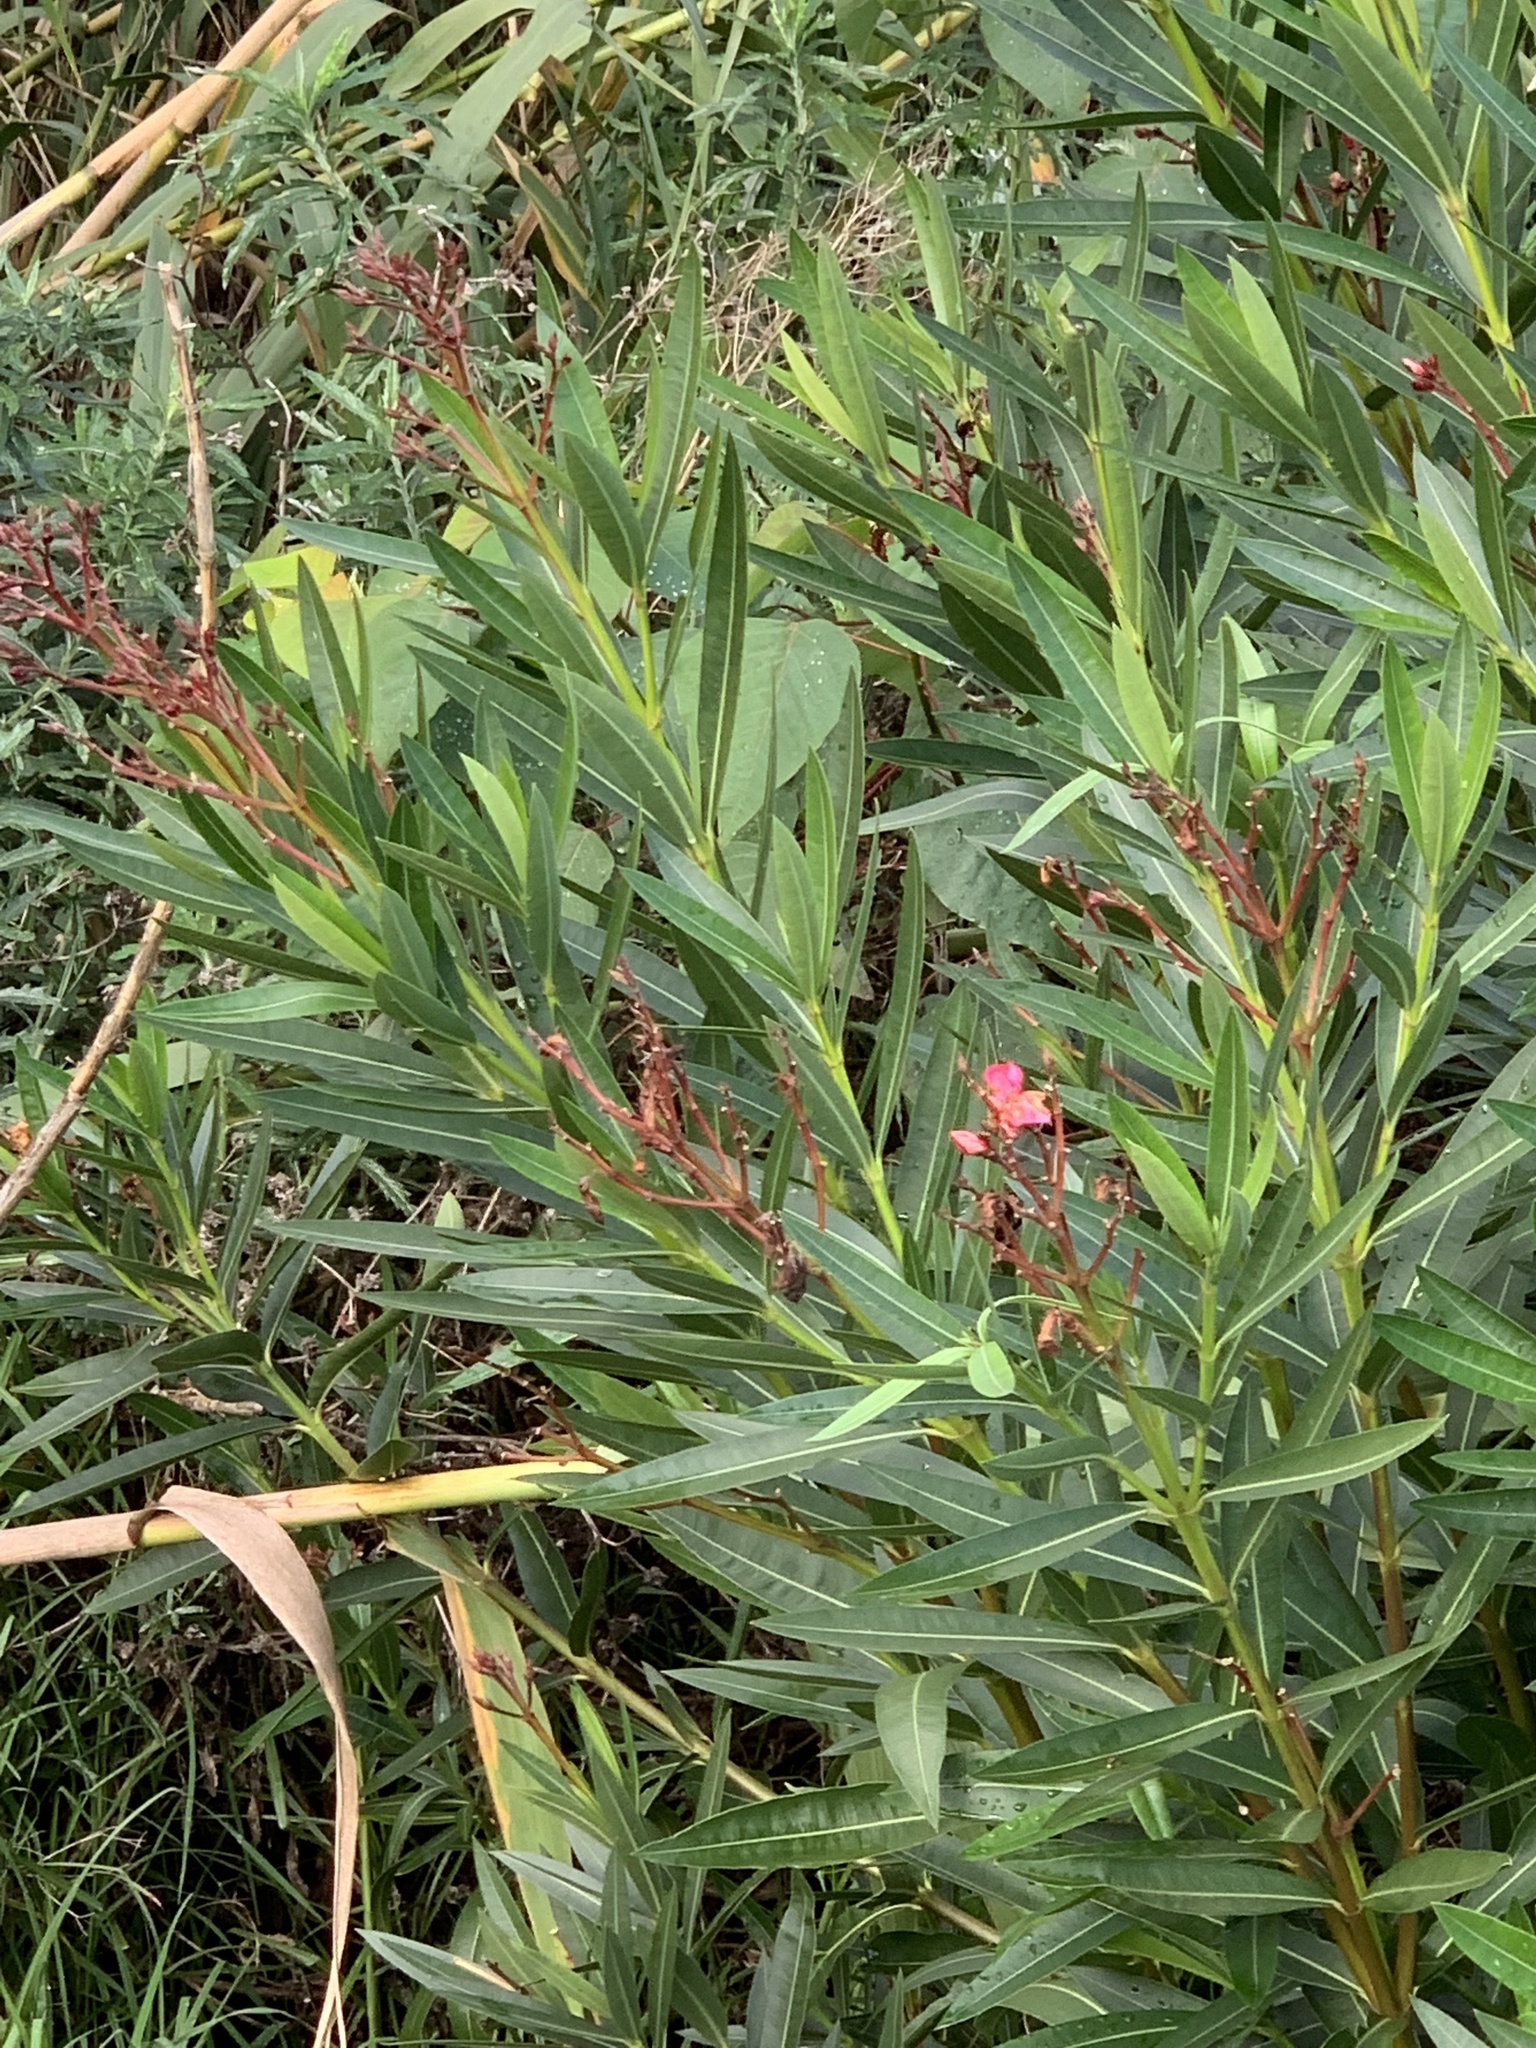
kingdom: Plantae
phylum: Tracheophyta
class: Magnoliopsida
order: Gentianales
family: Apocynaceae
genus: Nerium
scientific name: Nerium oleander
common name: Oleander
